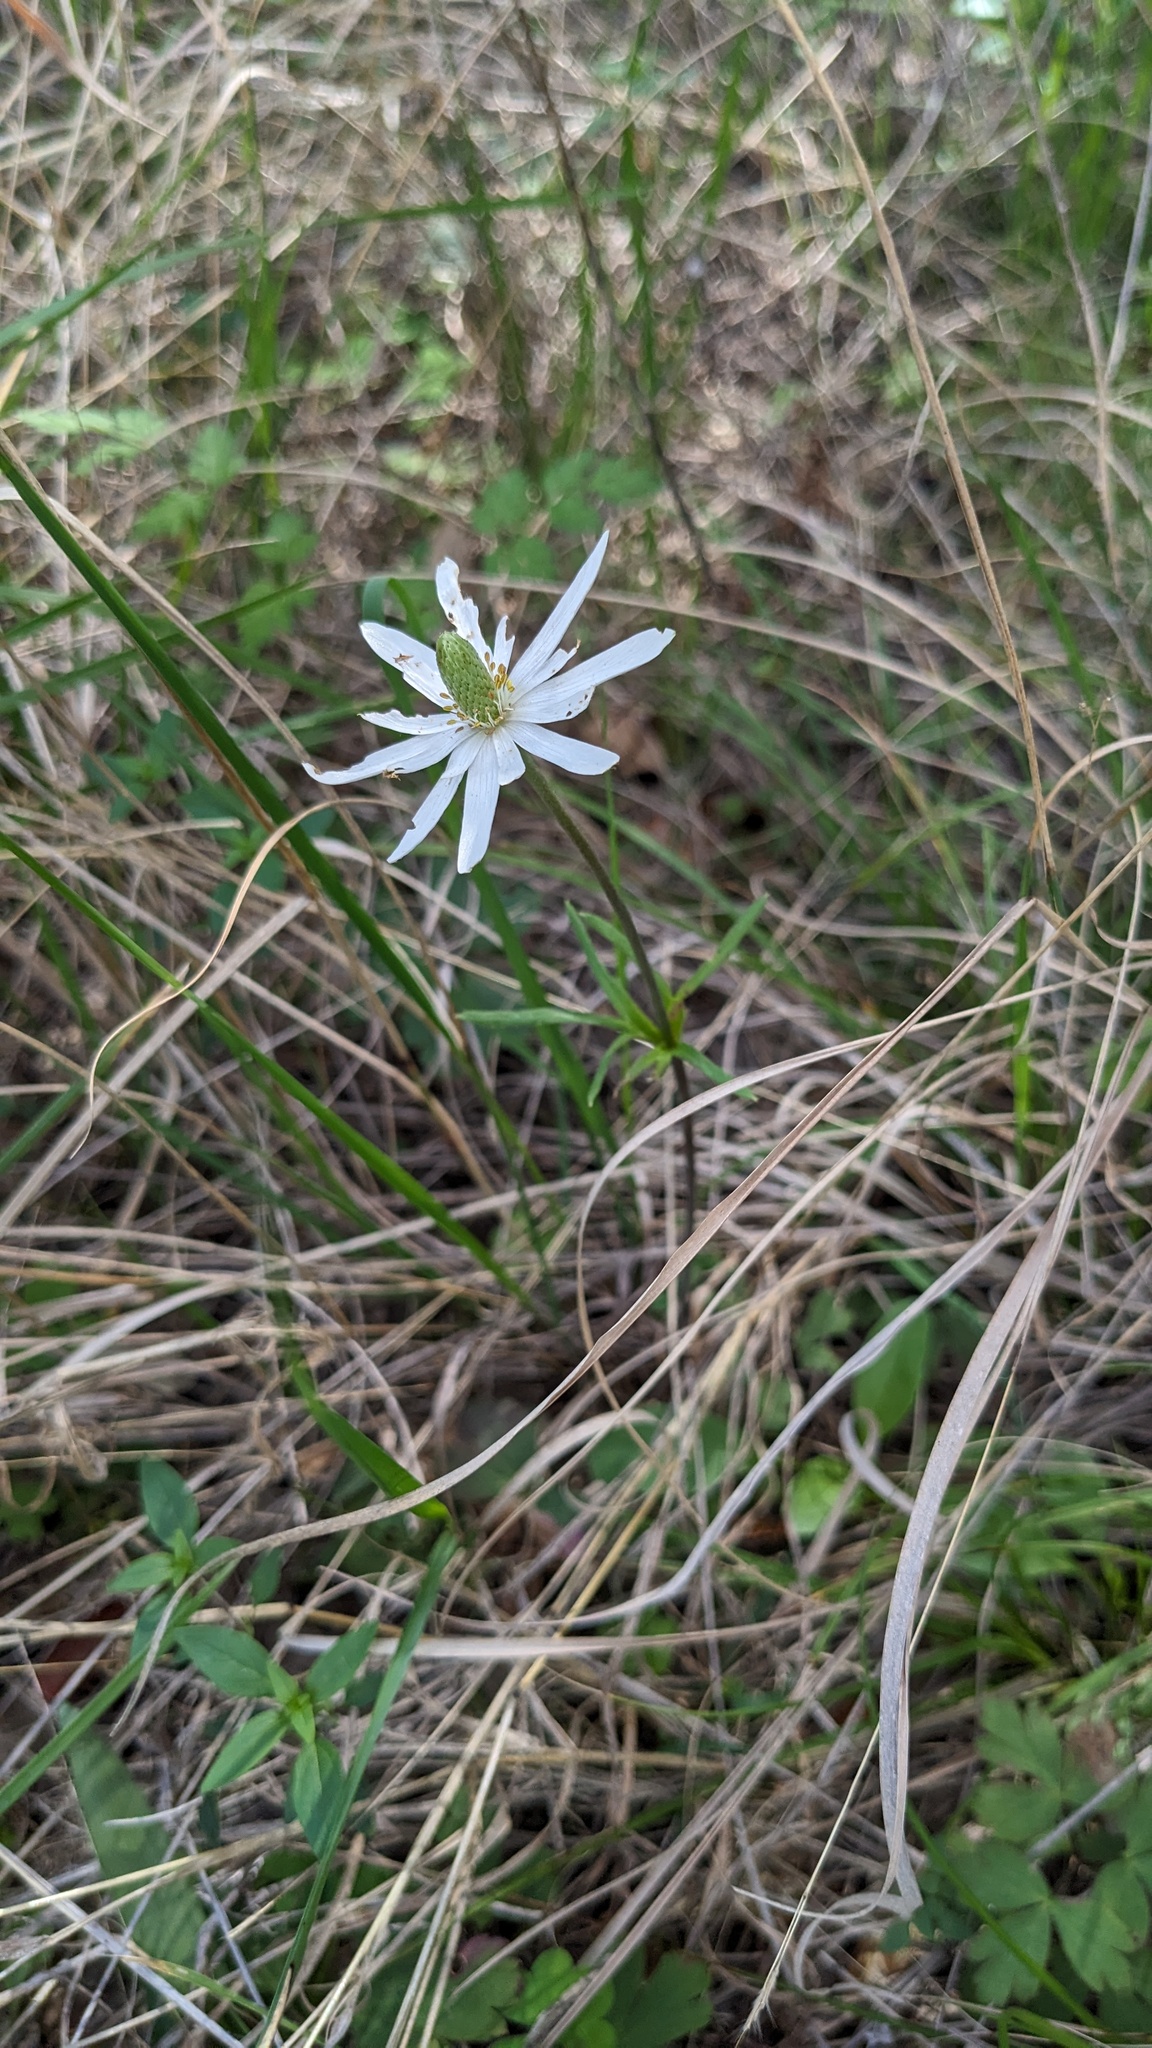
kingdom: Plantae
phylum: Tracheophyta
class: Magnoliopsida
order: Ranunculales
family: Ranunculaceae
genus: Anemone
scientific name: Anemone berlandieri
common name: Ten-petal anemone
